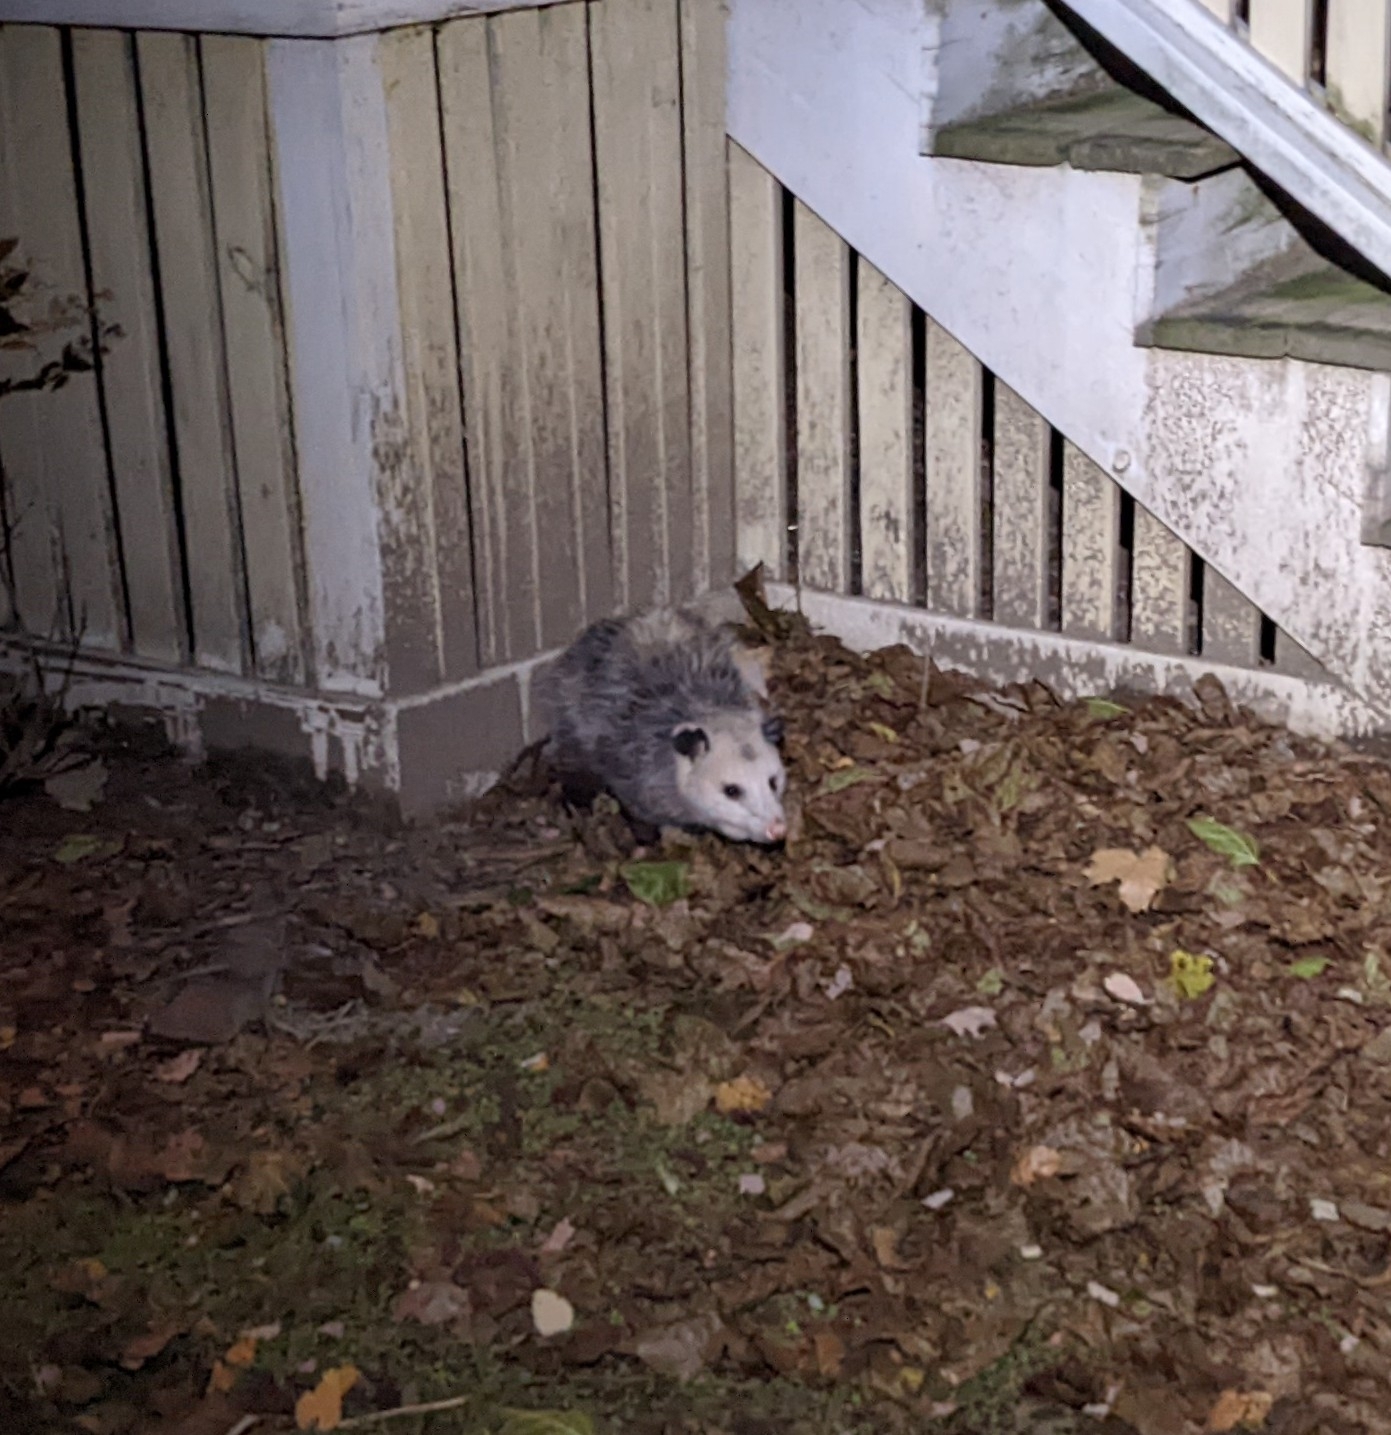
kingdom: Animalia
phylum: Chordata
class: Mammalia
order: Didelphimorphia
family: Didelphidae
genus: Didelphis
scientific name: Didelphis virginiana
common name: Virginia opossum
